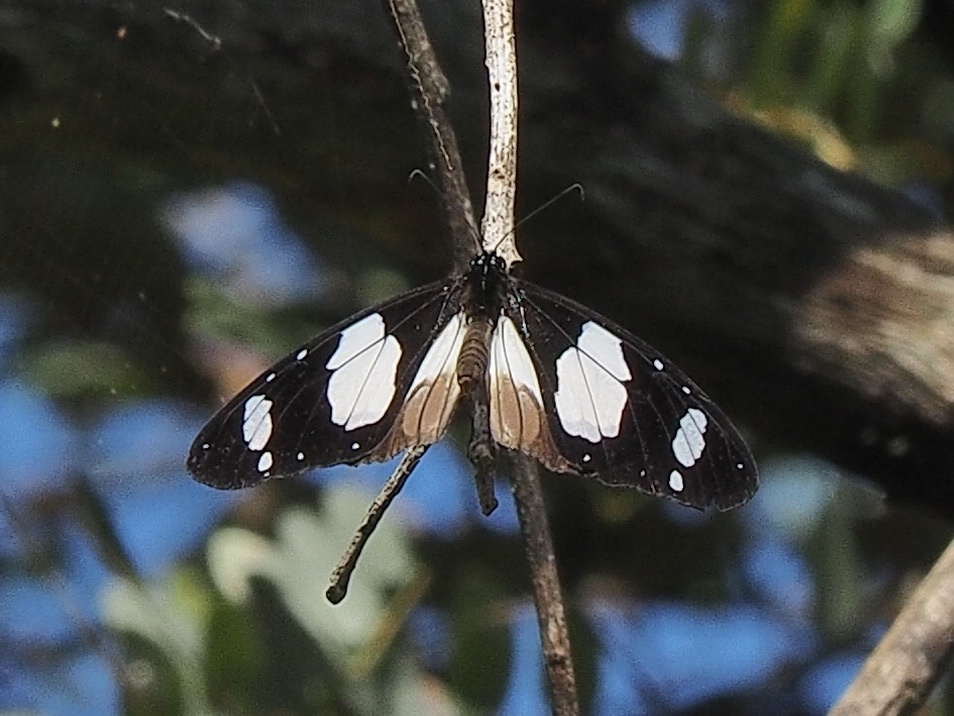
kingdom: Animalia
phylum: Arthropoda
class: Insecta
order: Lepidoptera
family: Nymphalidae
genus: Amauris
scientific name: Amauris ochlea
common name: Novice
